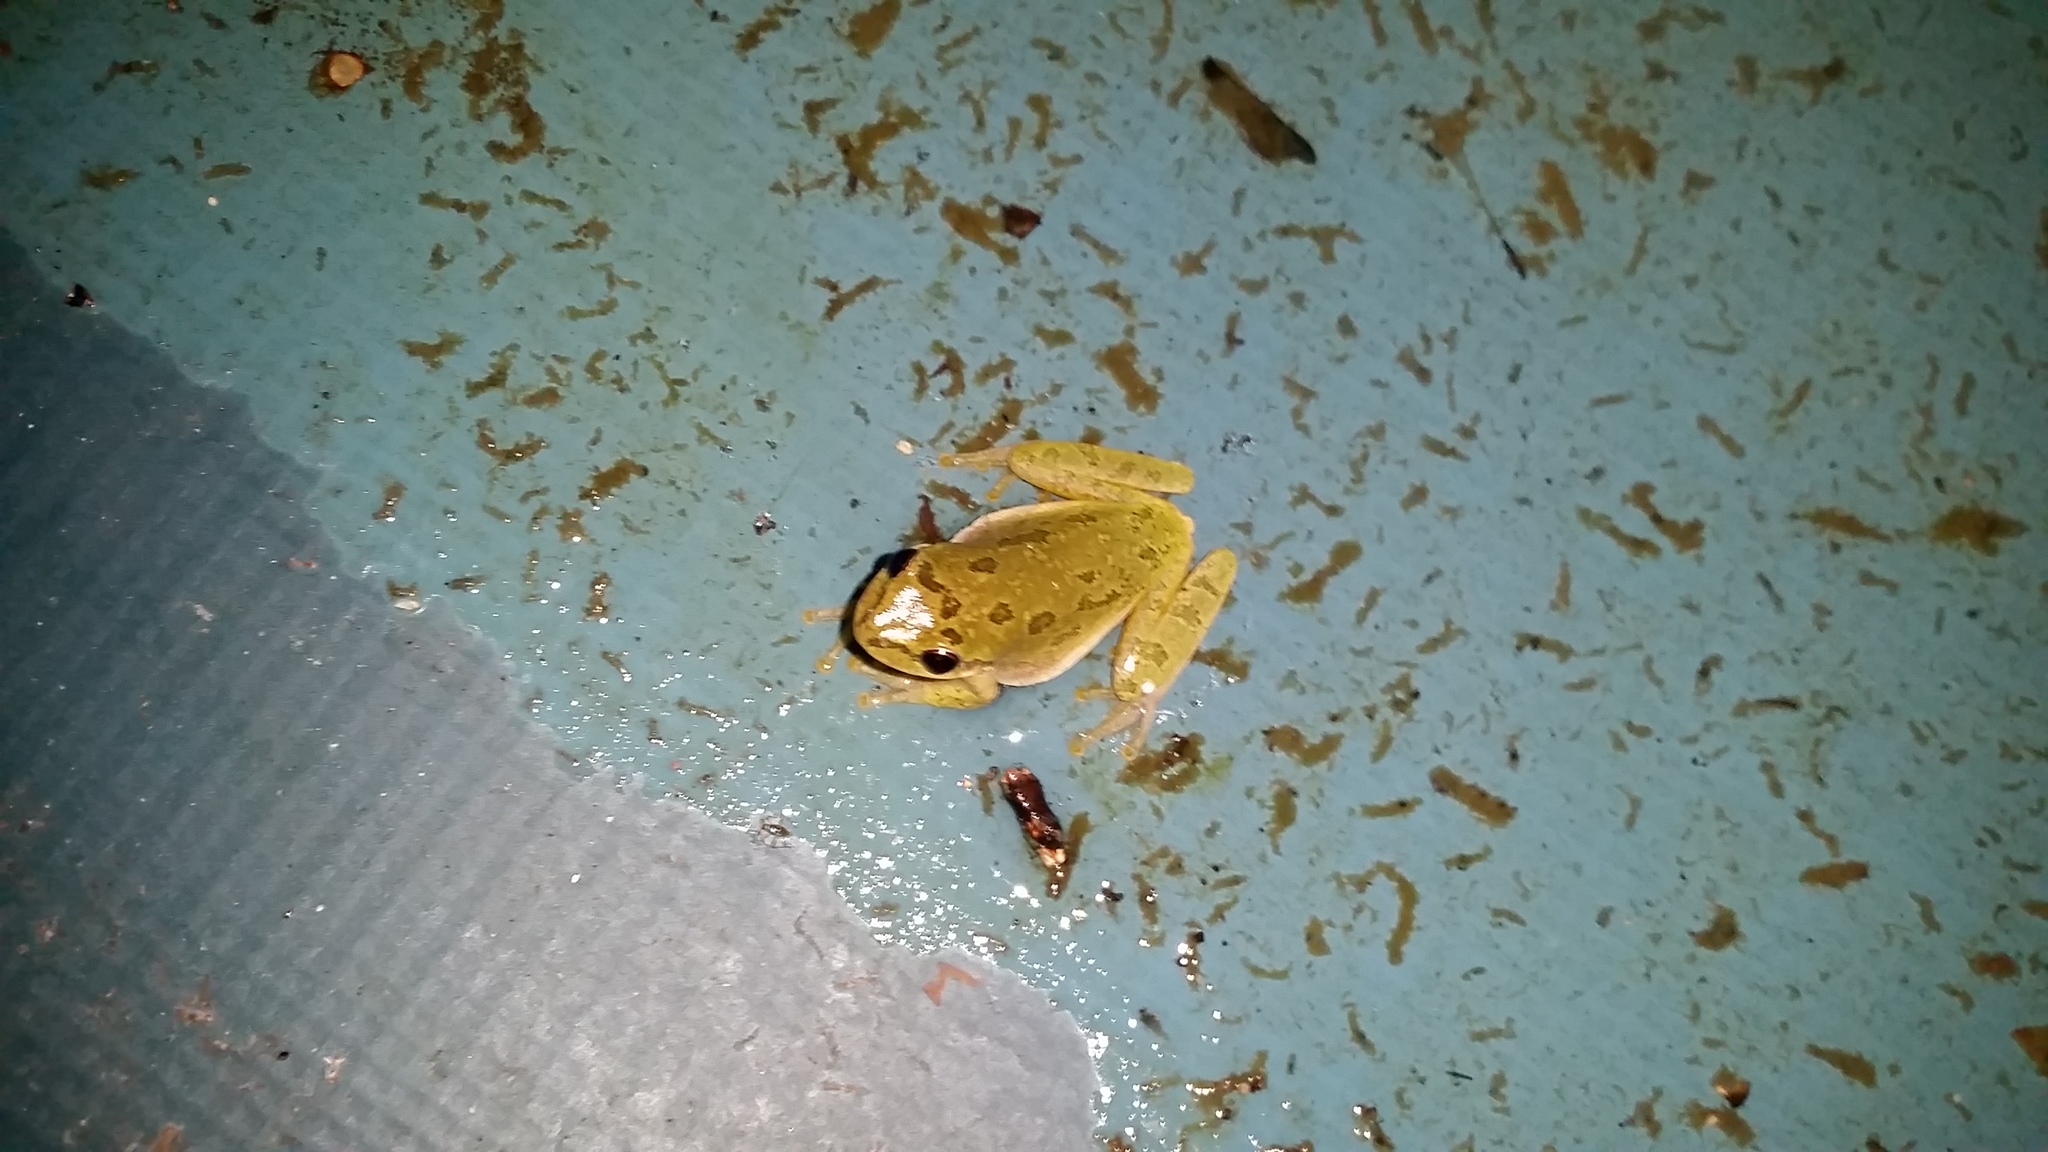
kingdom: Animalia
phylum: Chordata
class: Amphibia
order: Anura
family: Hylidae
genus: Dryophytes
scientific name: Dryophytes squirellus
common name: Squirrel treefrog
